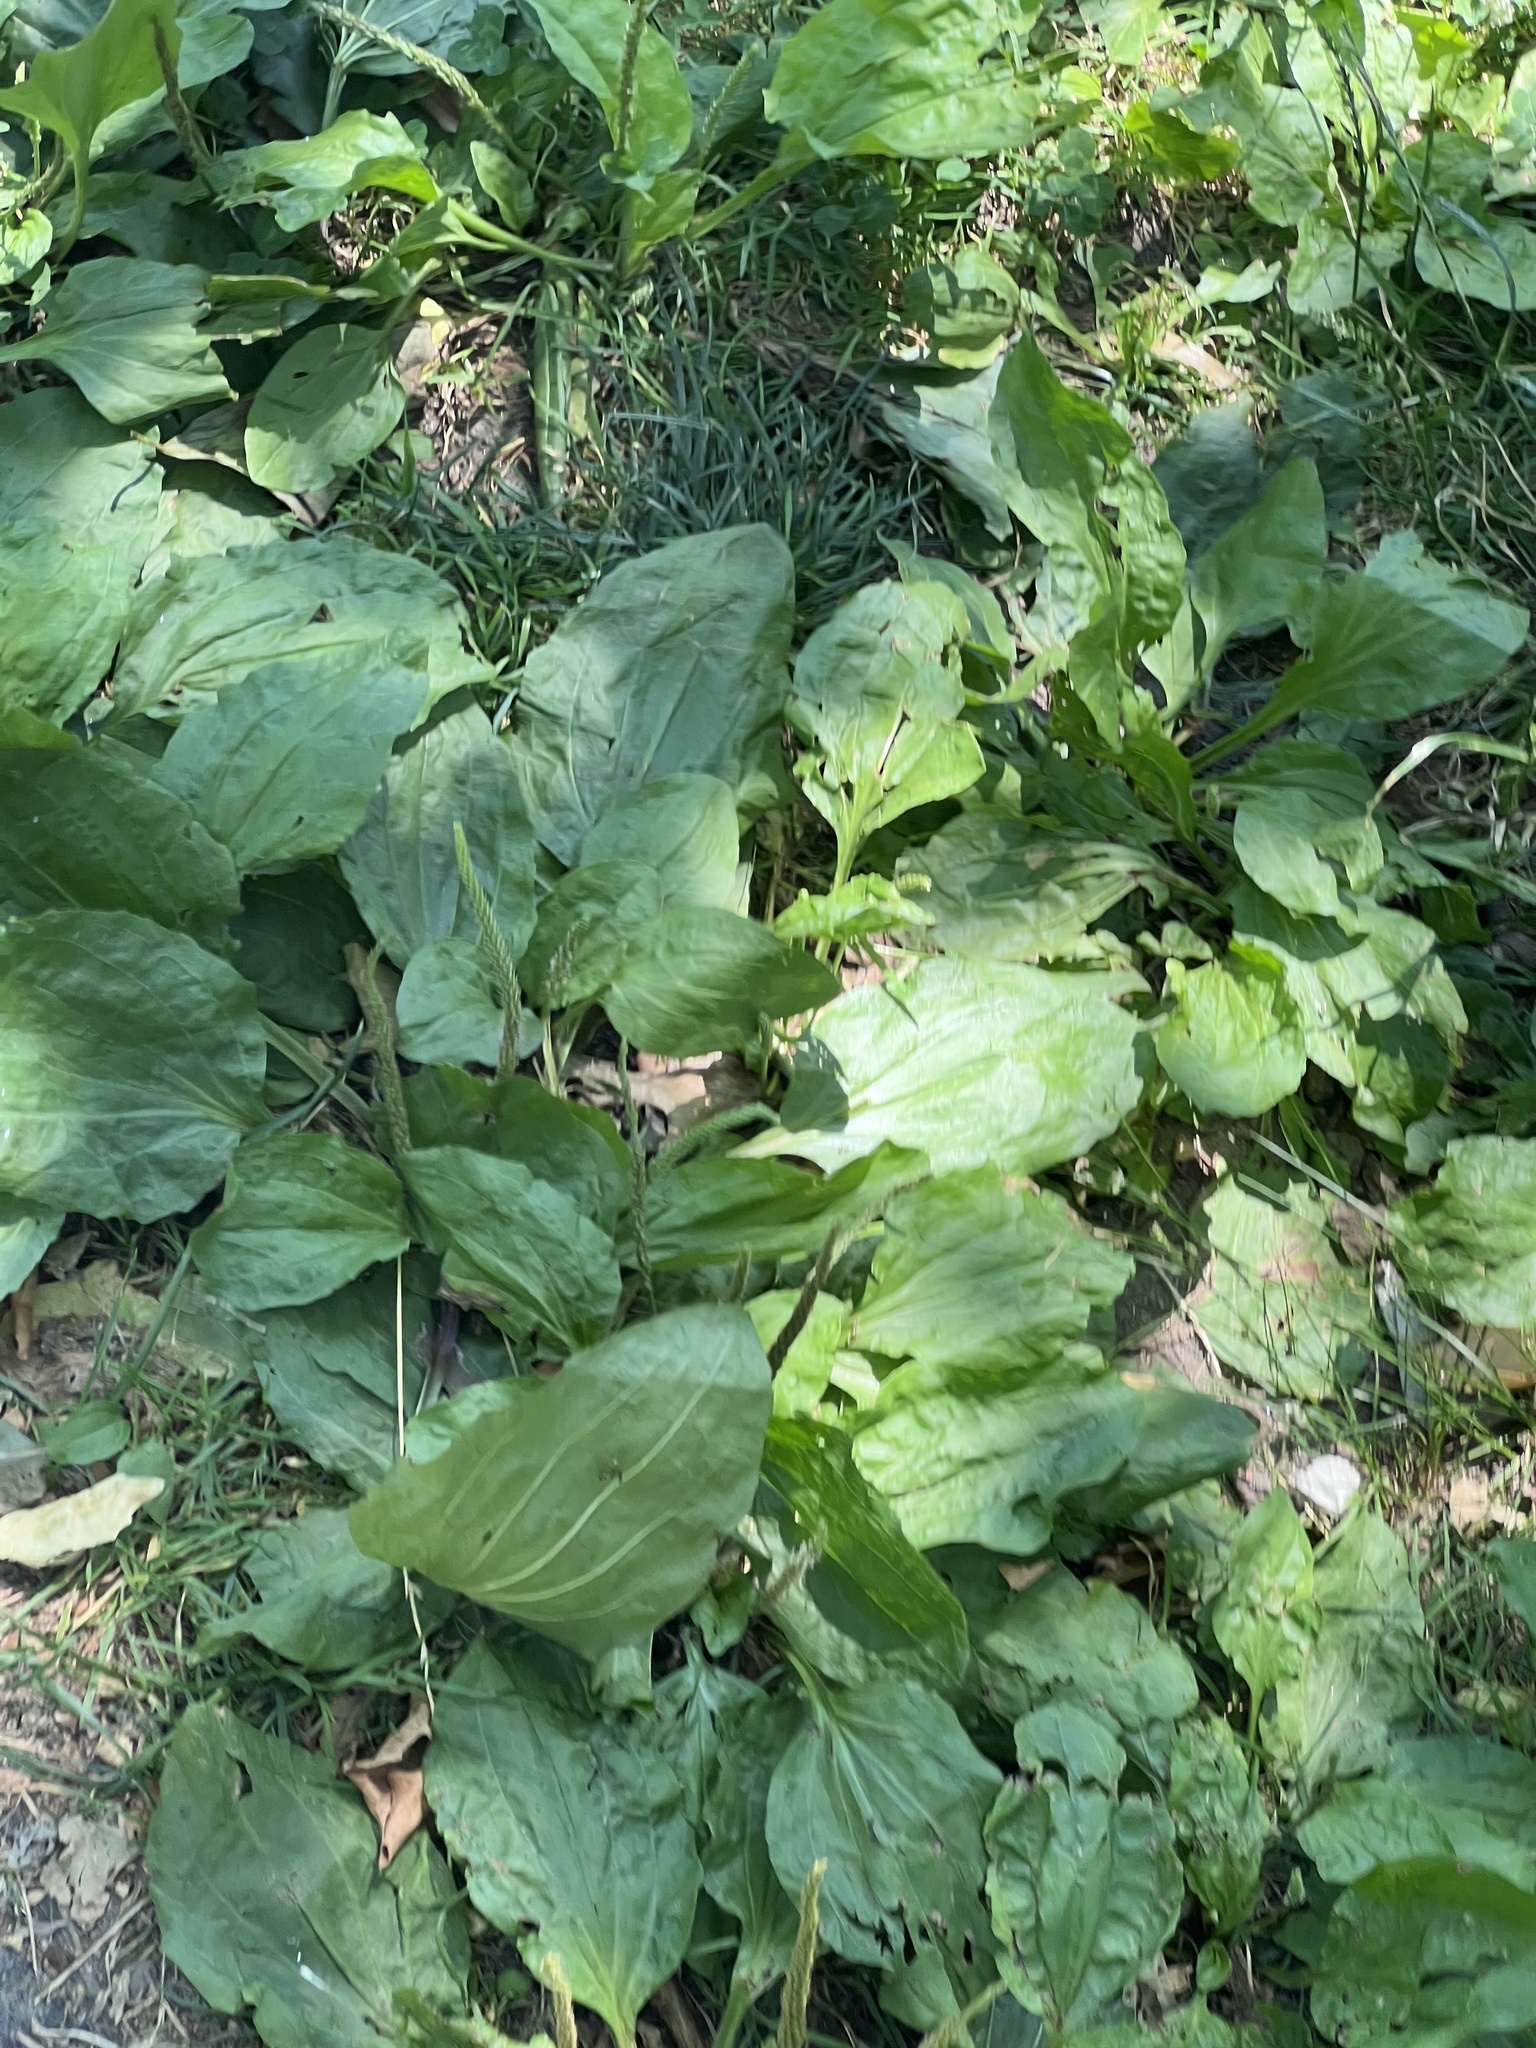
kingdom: Plantae
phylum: Tracheophyta
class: Magnoliopsida
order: Lamiales
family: Plantaginaceae
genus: Plantago
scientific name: Plantago rugelii
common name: American plantain
